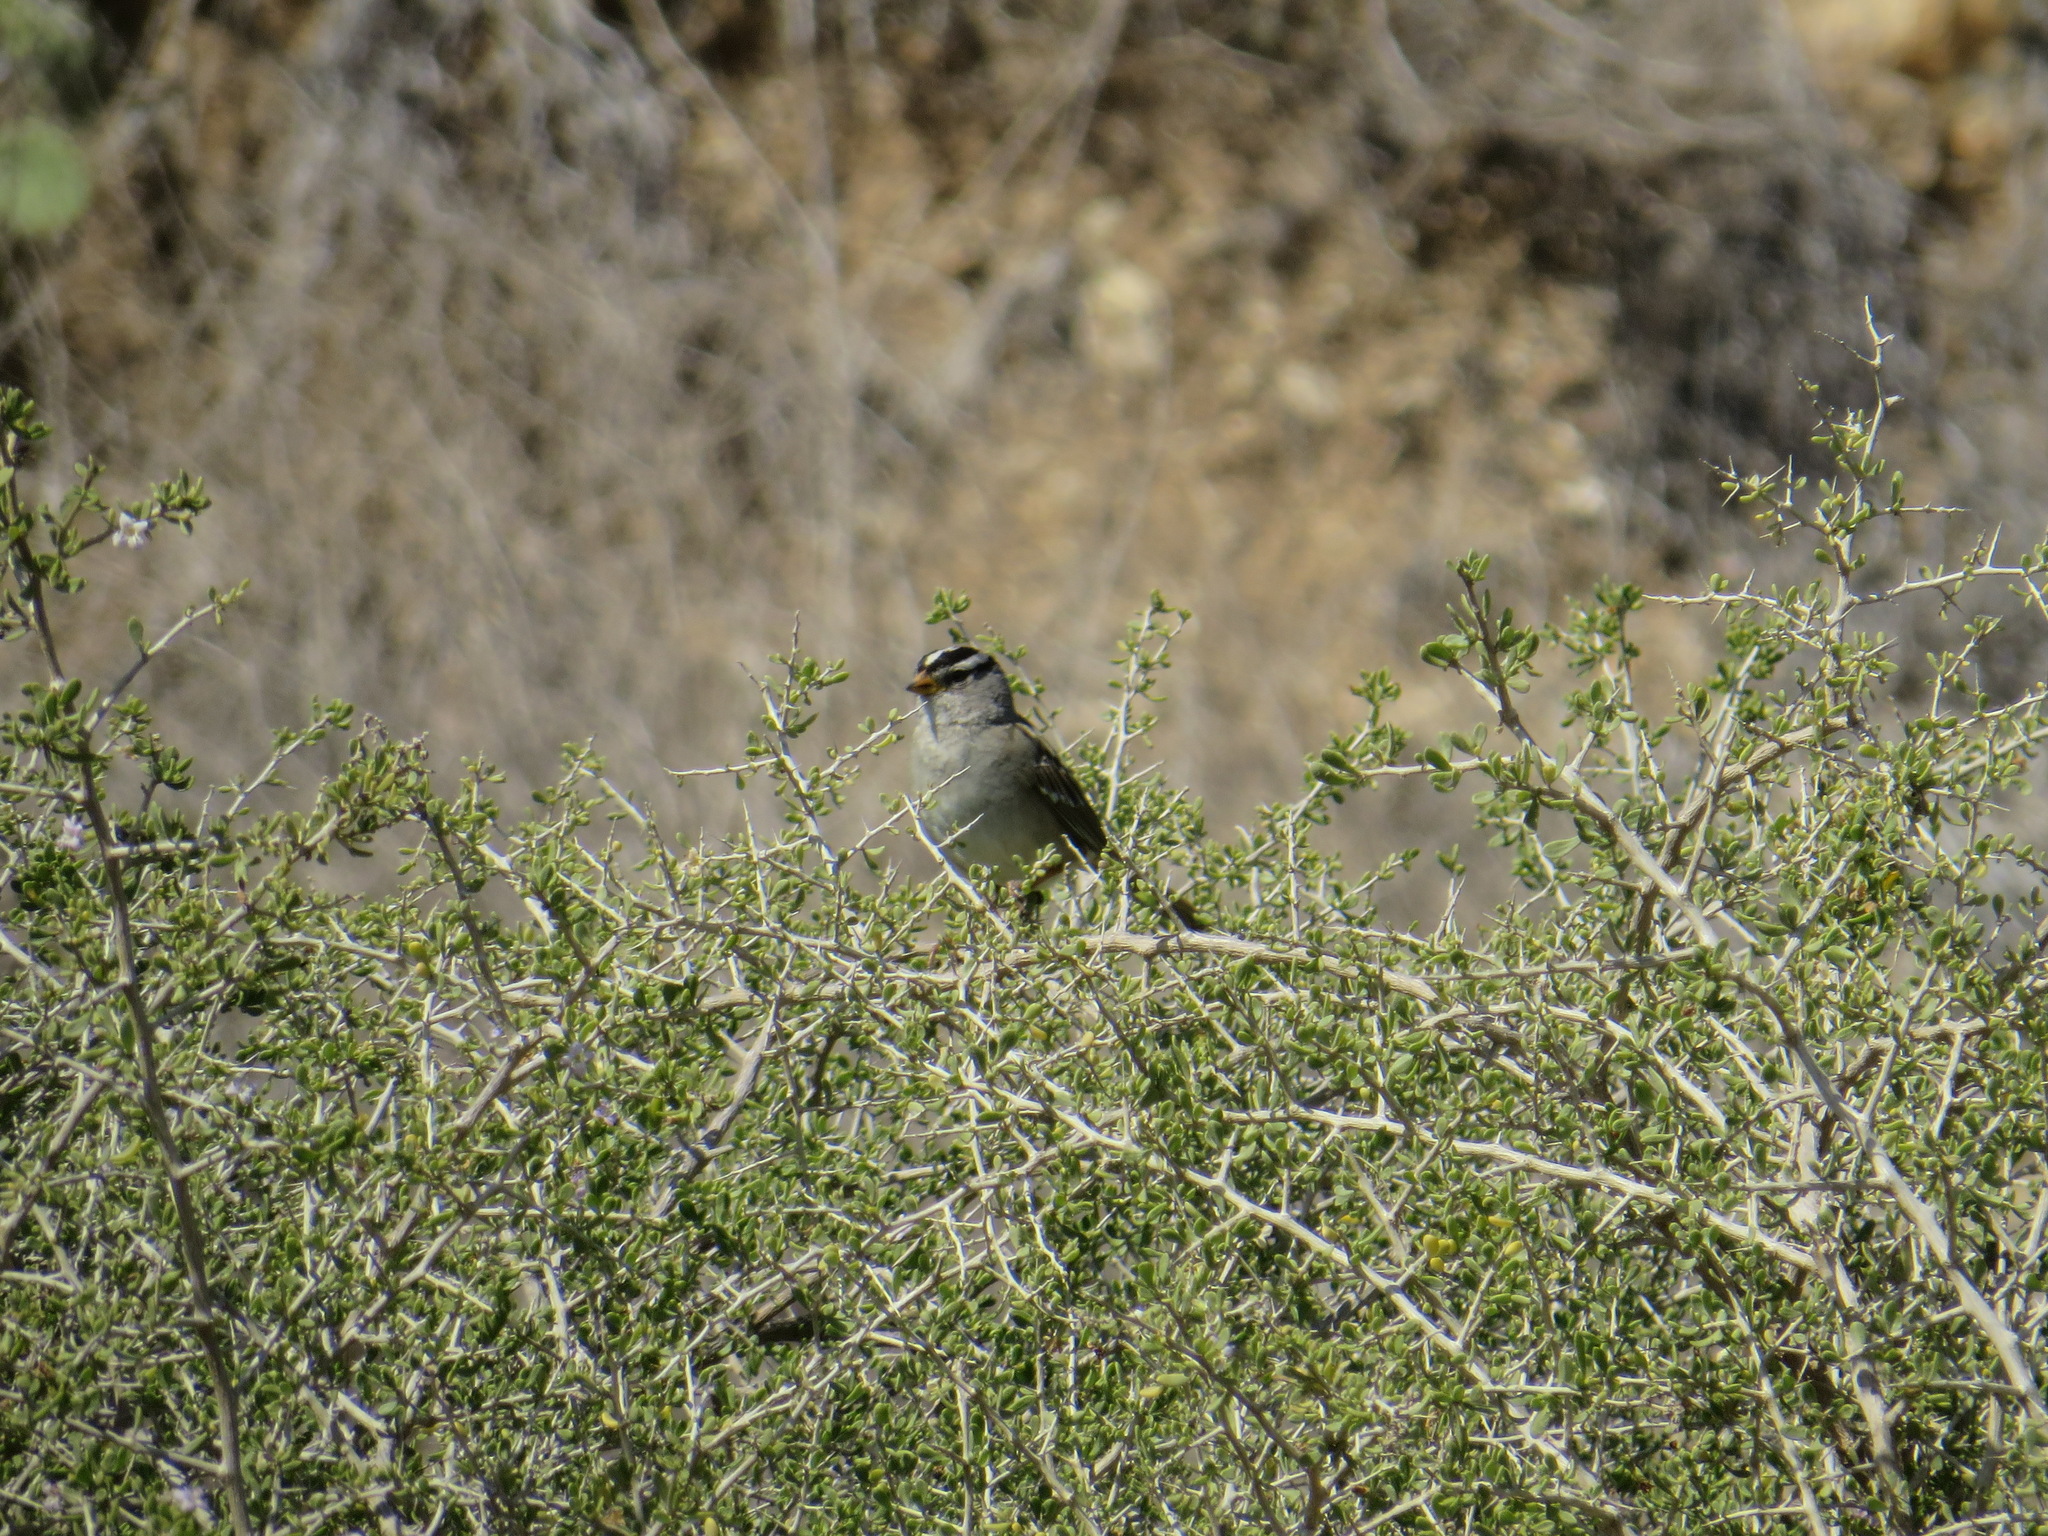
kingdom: Animalia
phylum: Chordata
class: Aves
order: Passeriformes
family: Passerellidae
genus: Zonotrichia
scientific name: Zonotrichia leucophrys
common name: White-crowned sparrow
